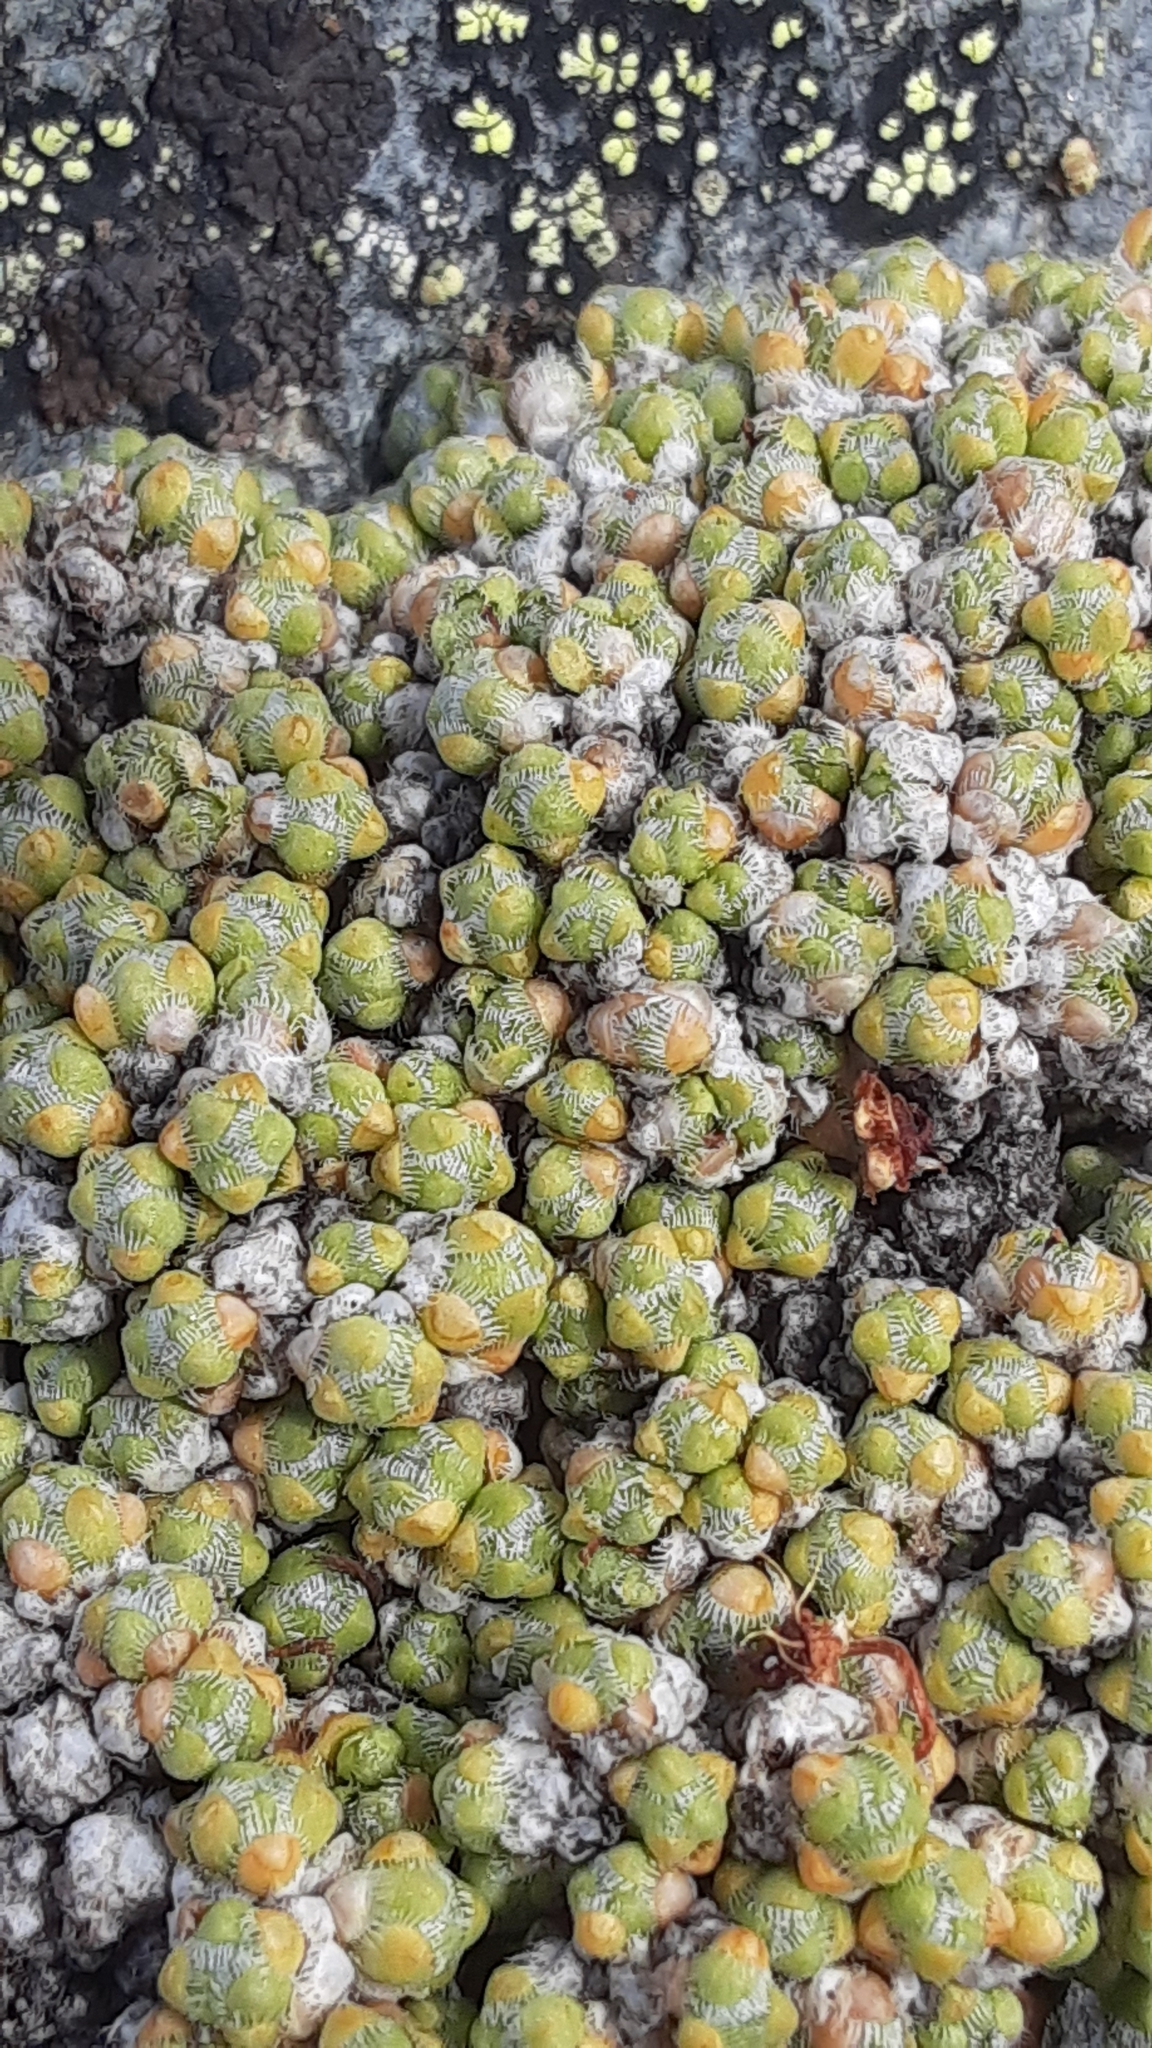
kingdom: Plantae
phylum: Tracheophyta
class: Magnoliopsida
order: Saxifragales
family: Saxifragaceae
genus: Saxifraga
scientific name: Saxifraga eschscholtzii
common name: Eschscholtz's saxifrage
